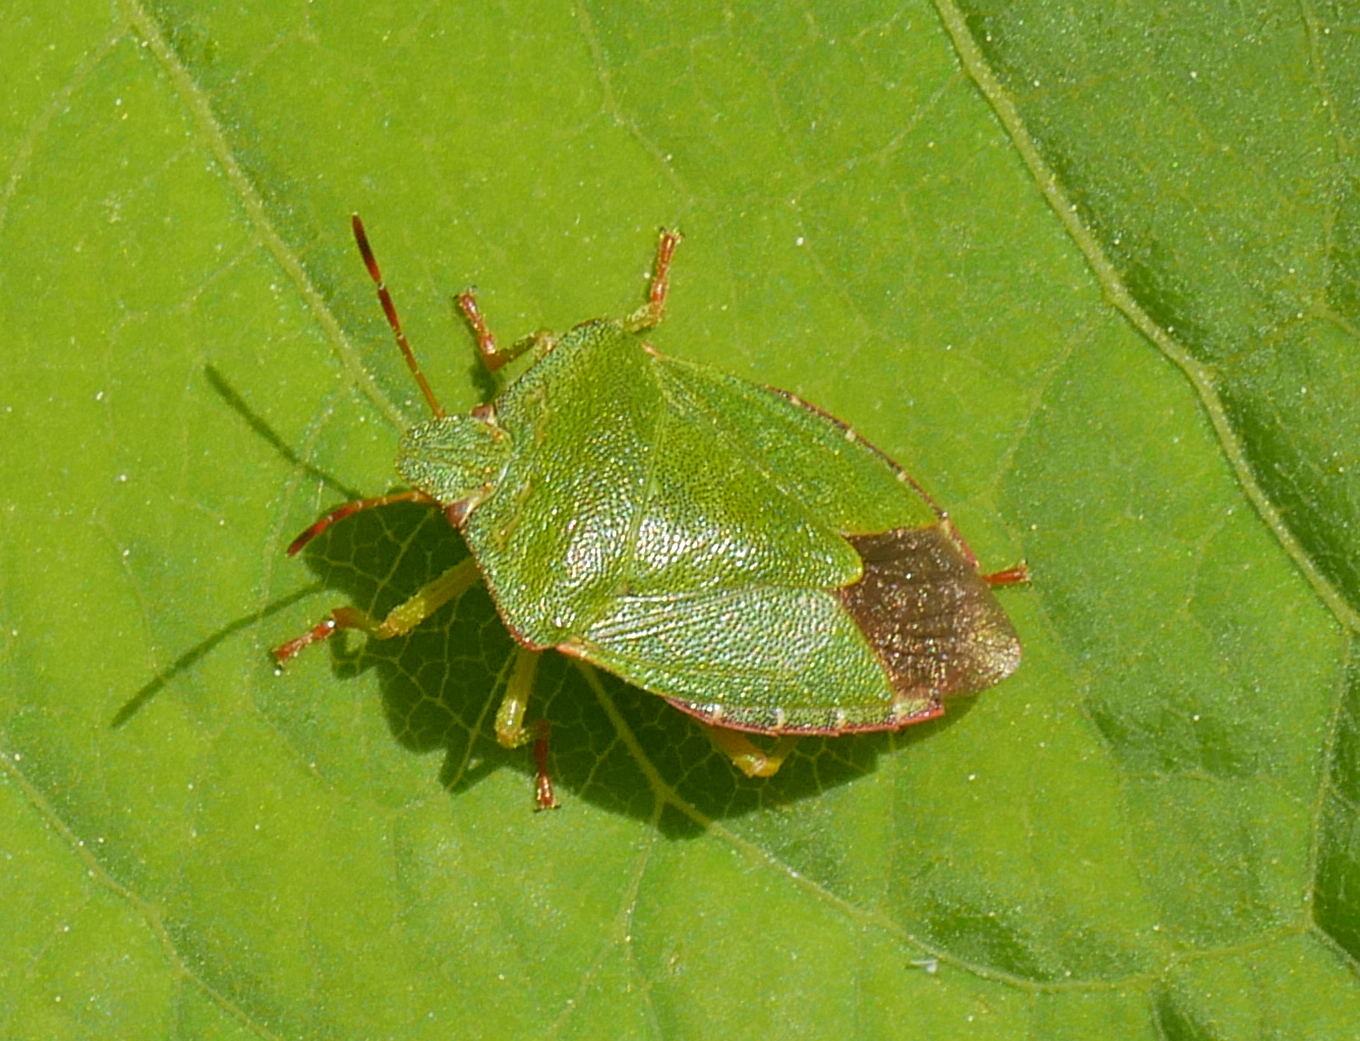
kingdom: Animalia
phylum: Arthropoda
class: Insecta
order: Hemiptera
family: Pentatomidae
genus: Palomena
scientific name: Palomena prasina
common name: Green shieldbug
